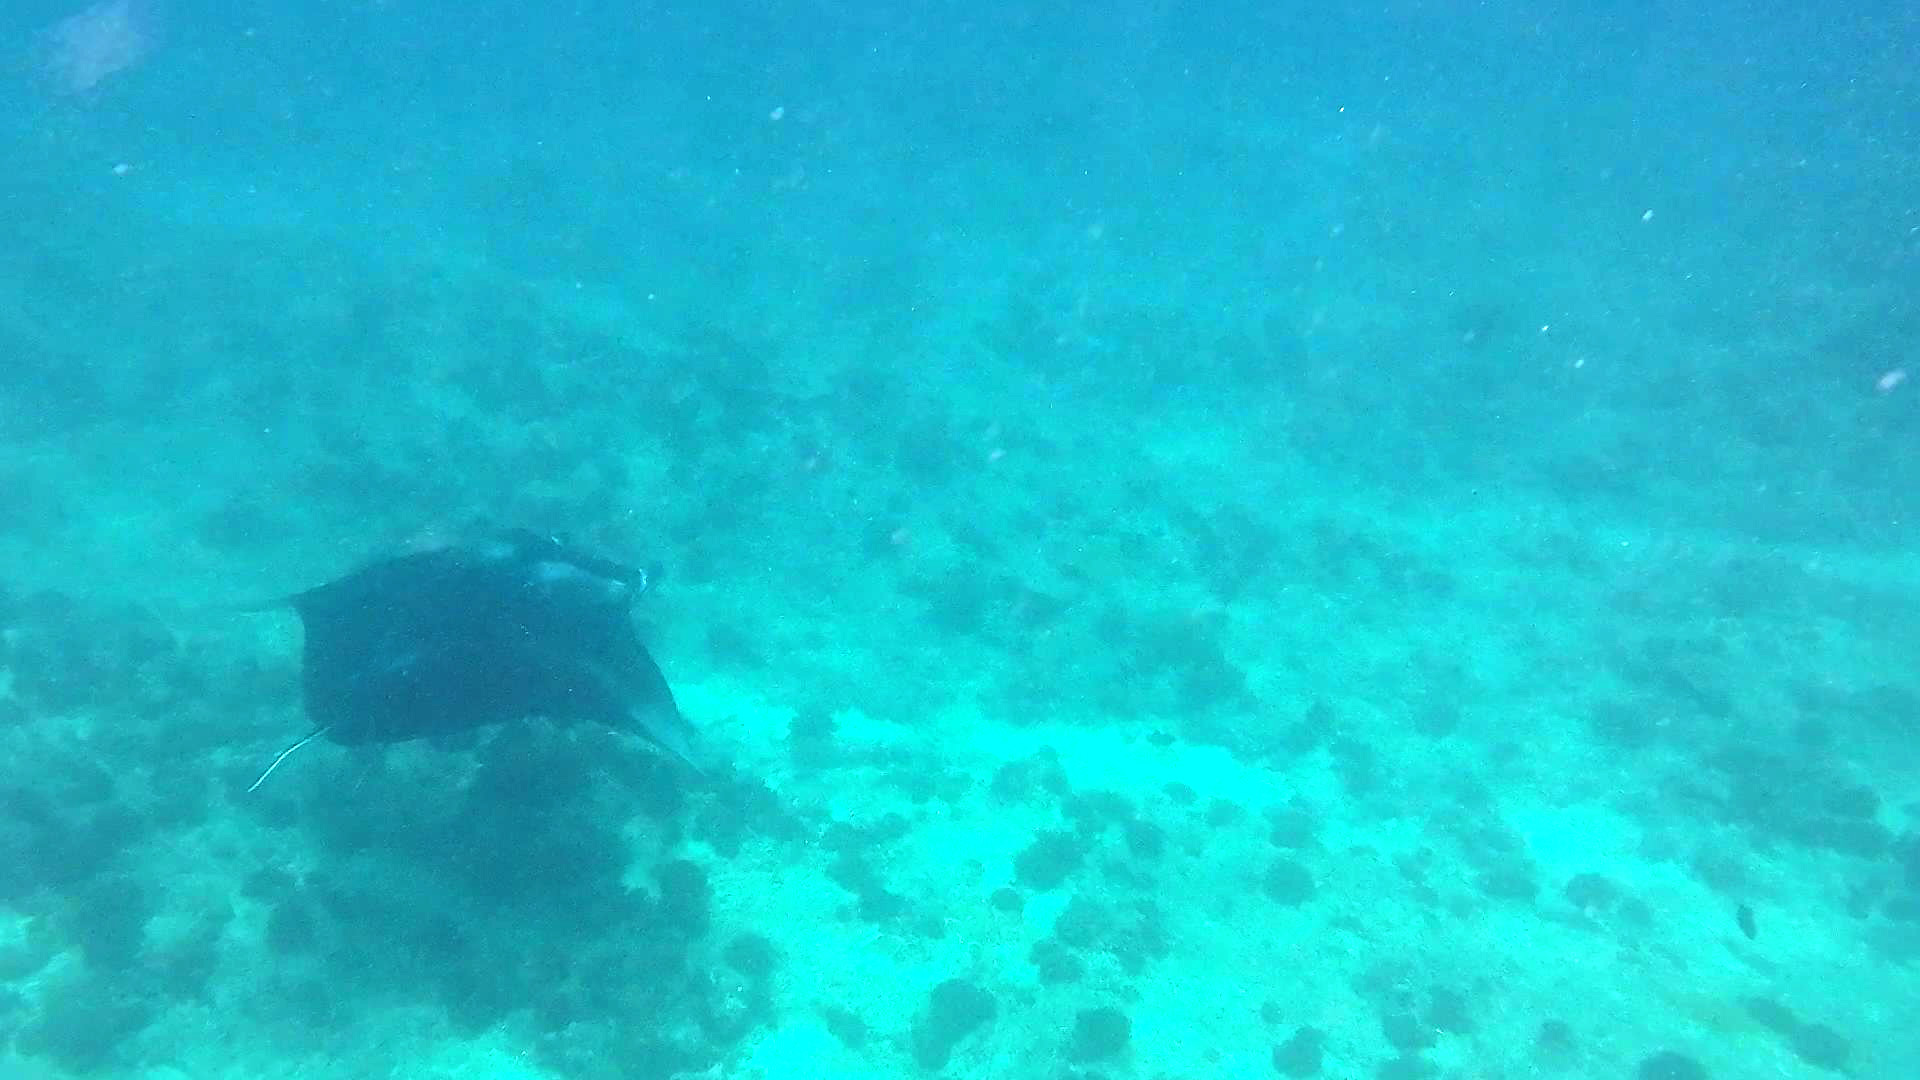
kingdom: Animalia
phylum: Chordata
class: Elasmobranchii
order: Myliobatiformes
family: Myliobatidae
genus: Mobula
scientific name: Mobula alfredi
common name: Reef manta ray
